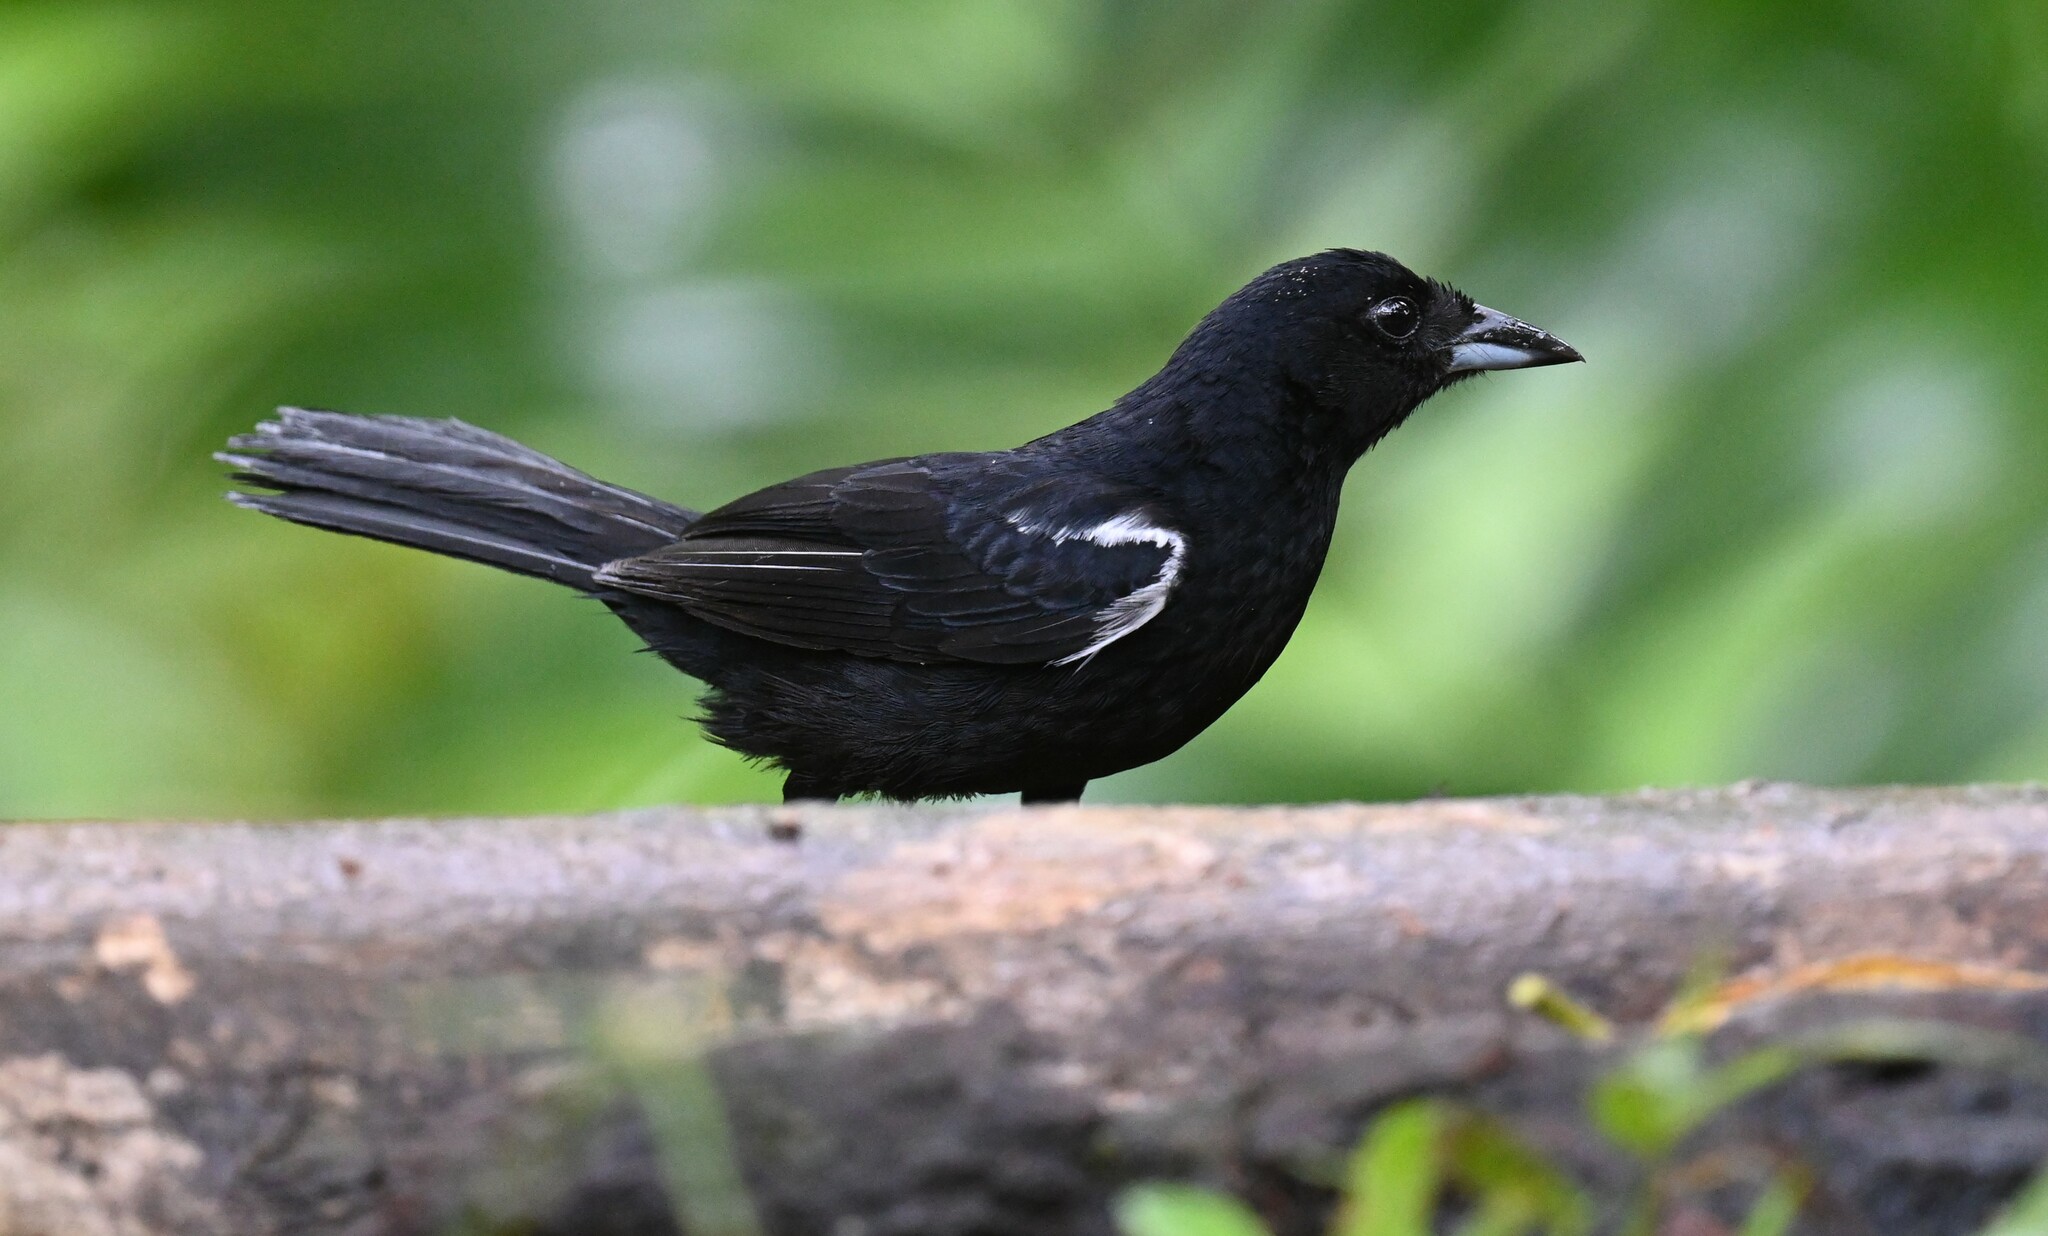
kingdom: Animalia
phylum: Chordata
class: Aves
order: Passeriformes
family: Thraupidae
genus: Loriotus
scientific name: Loriotus luctuosus
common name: White-shouldered tanager
